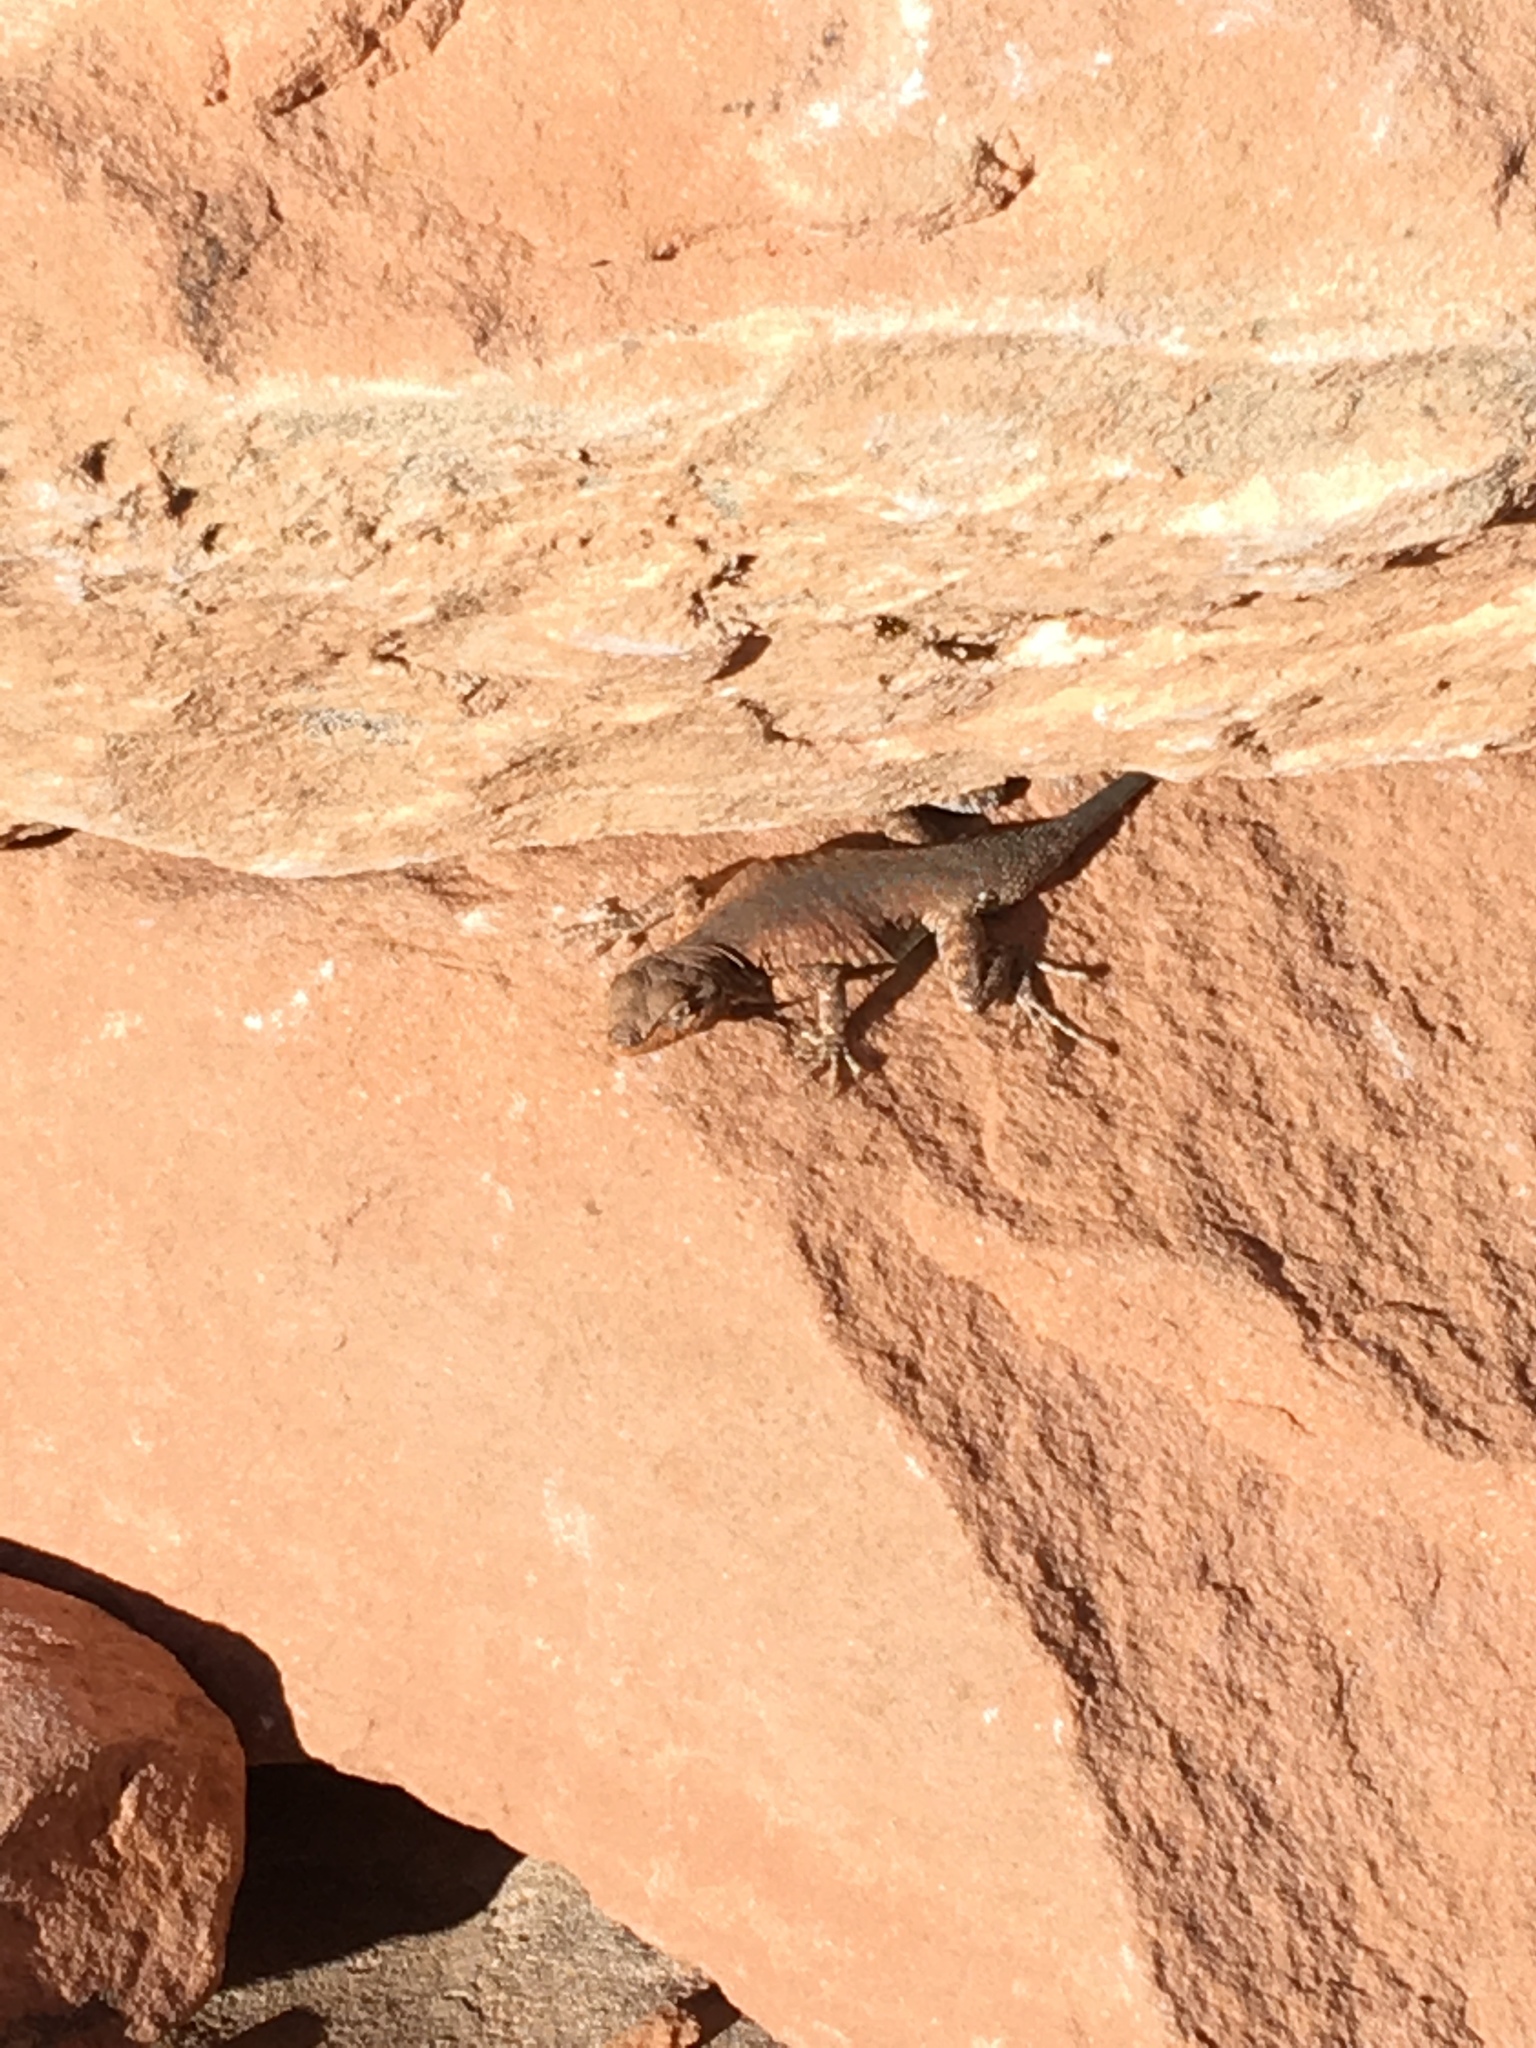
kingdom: Animalia
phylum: Chordata
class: Squamata
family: Phrynosomatidae
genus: Uta
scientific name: Uta stansburiana
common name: Side-blotched lizard
